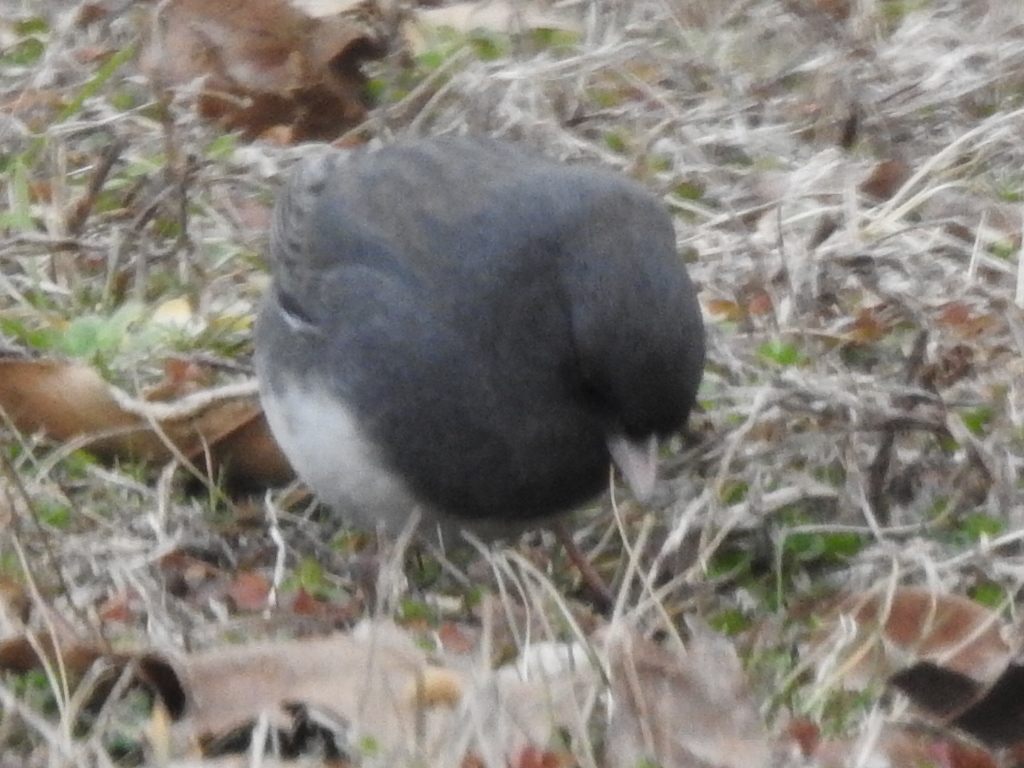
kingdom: Animalia
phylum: Chordata
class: Aves
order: Passeriformes
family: Passerellidae
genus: Junco
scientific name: Junco hyemalis
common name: Dark-eyed junco
